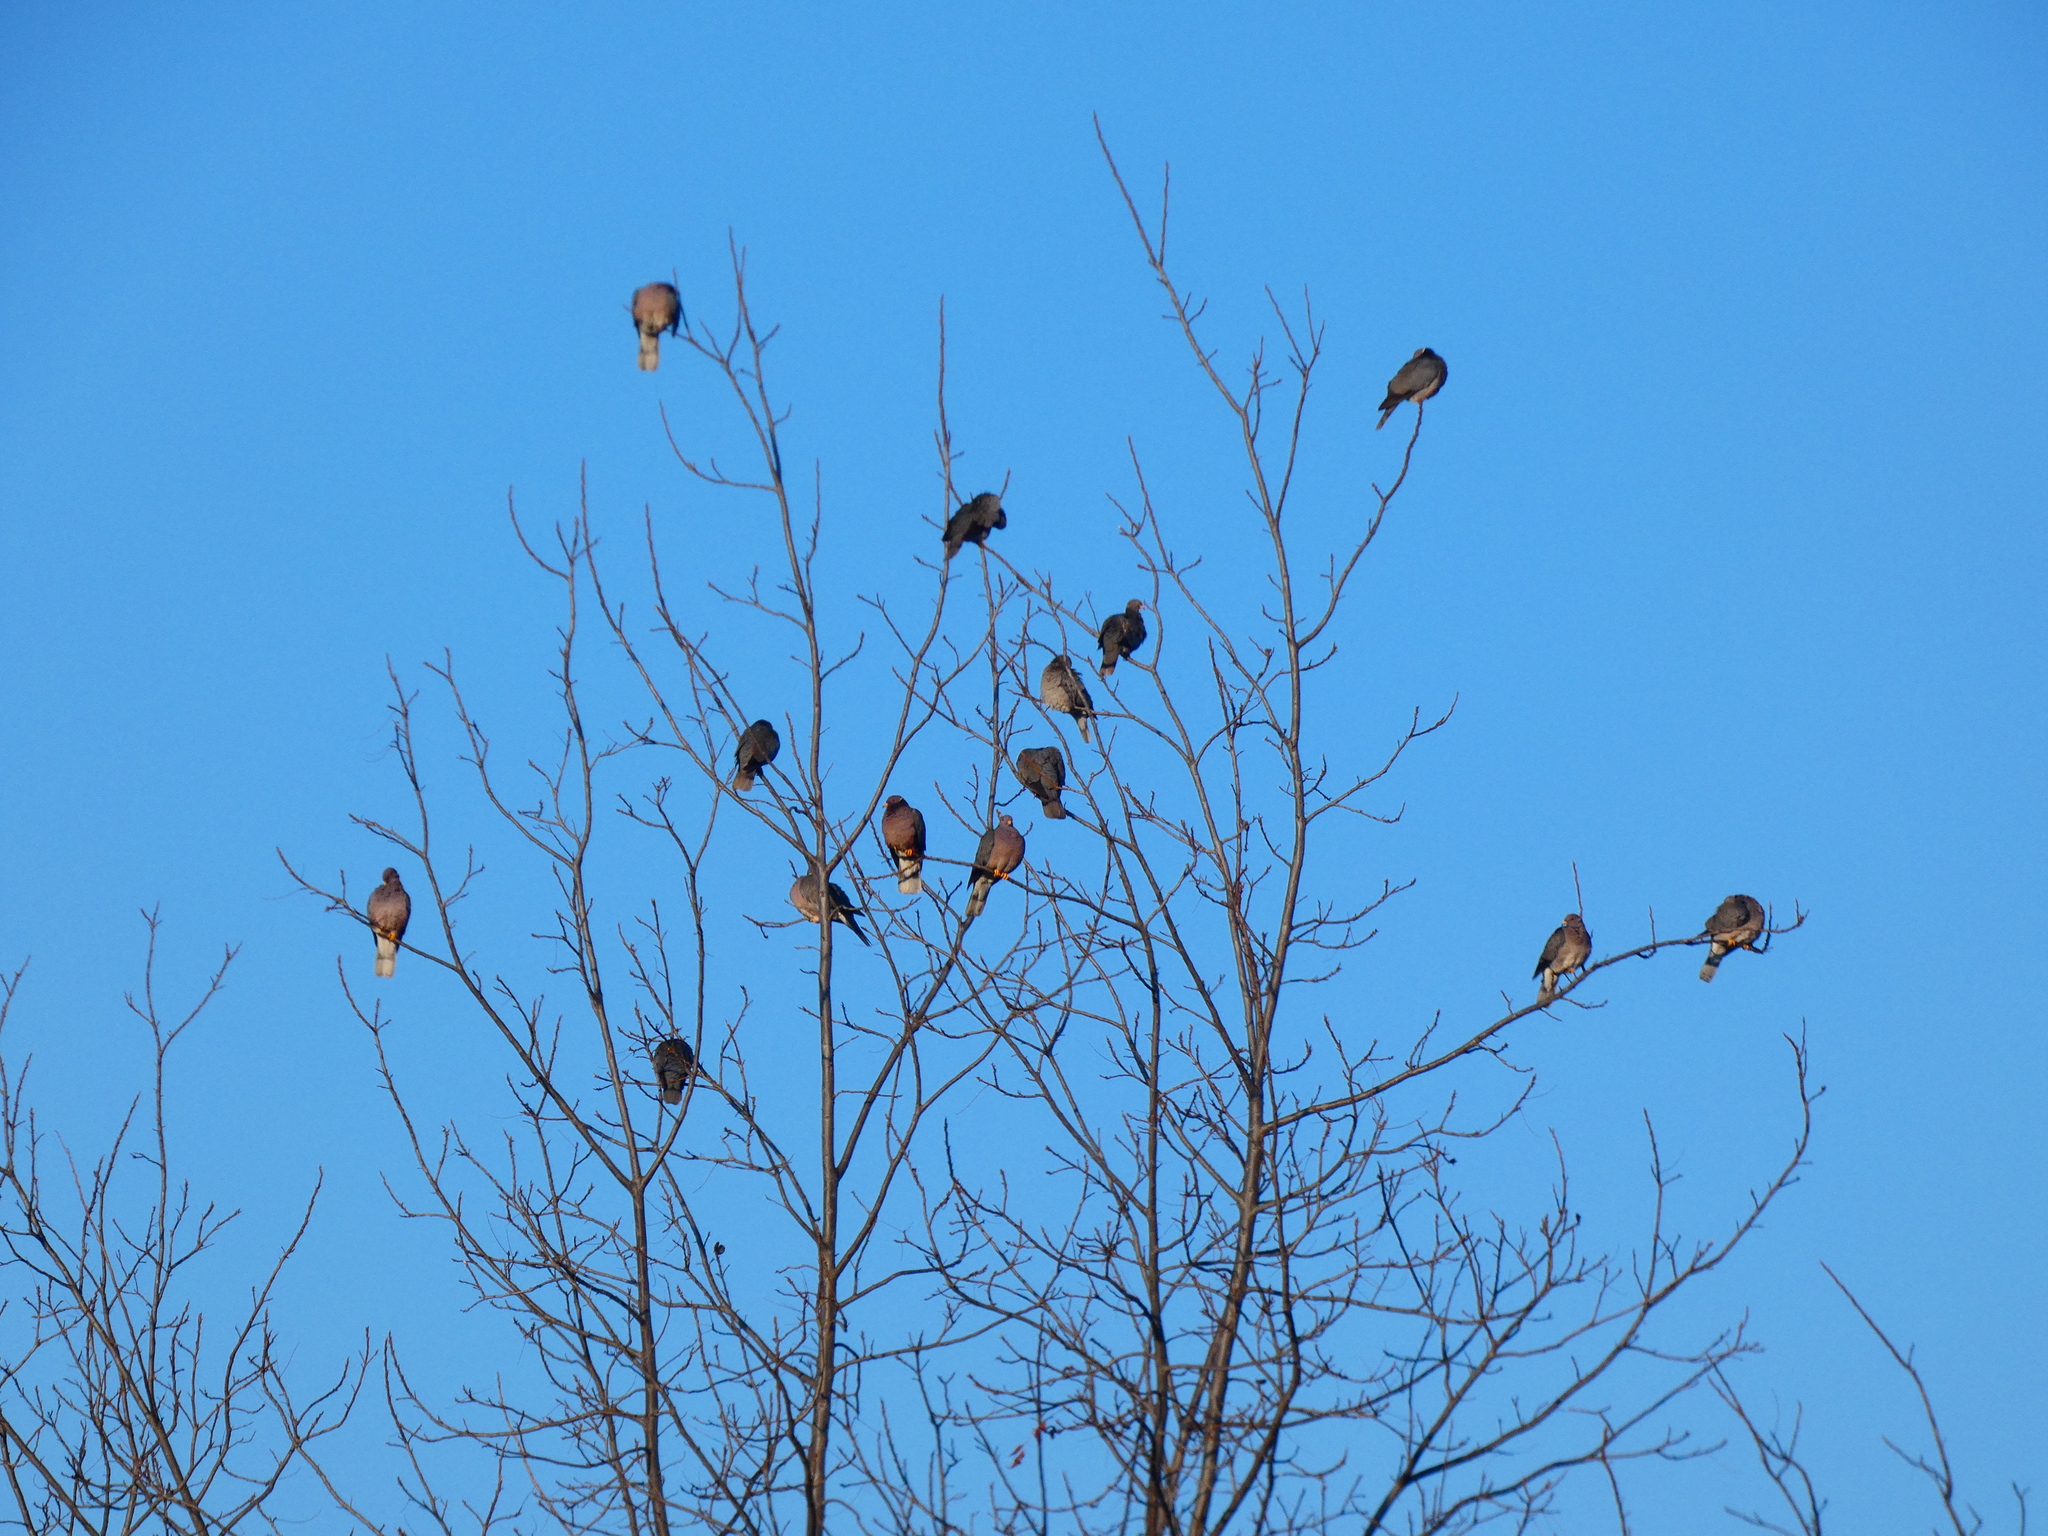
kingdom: Animalia
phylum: Chordata
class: Aves
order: Columbiformes
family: Columbidae
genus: Patagioenas
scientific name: Patagioenas fasciata
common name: Band-tailed pigeon
